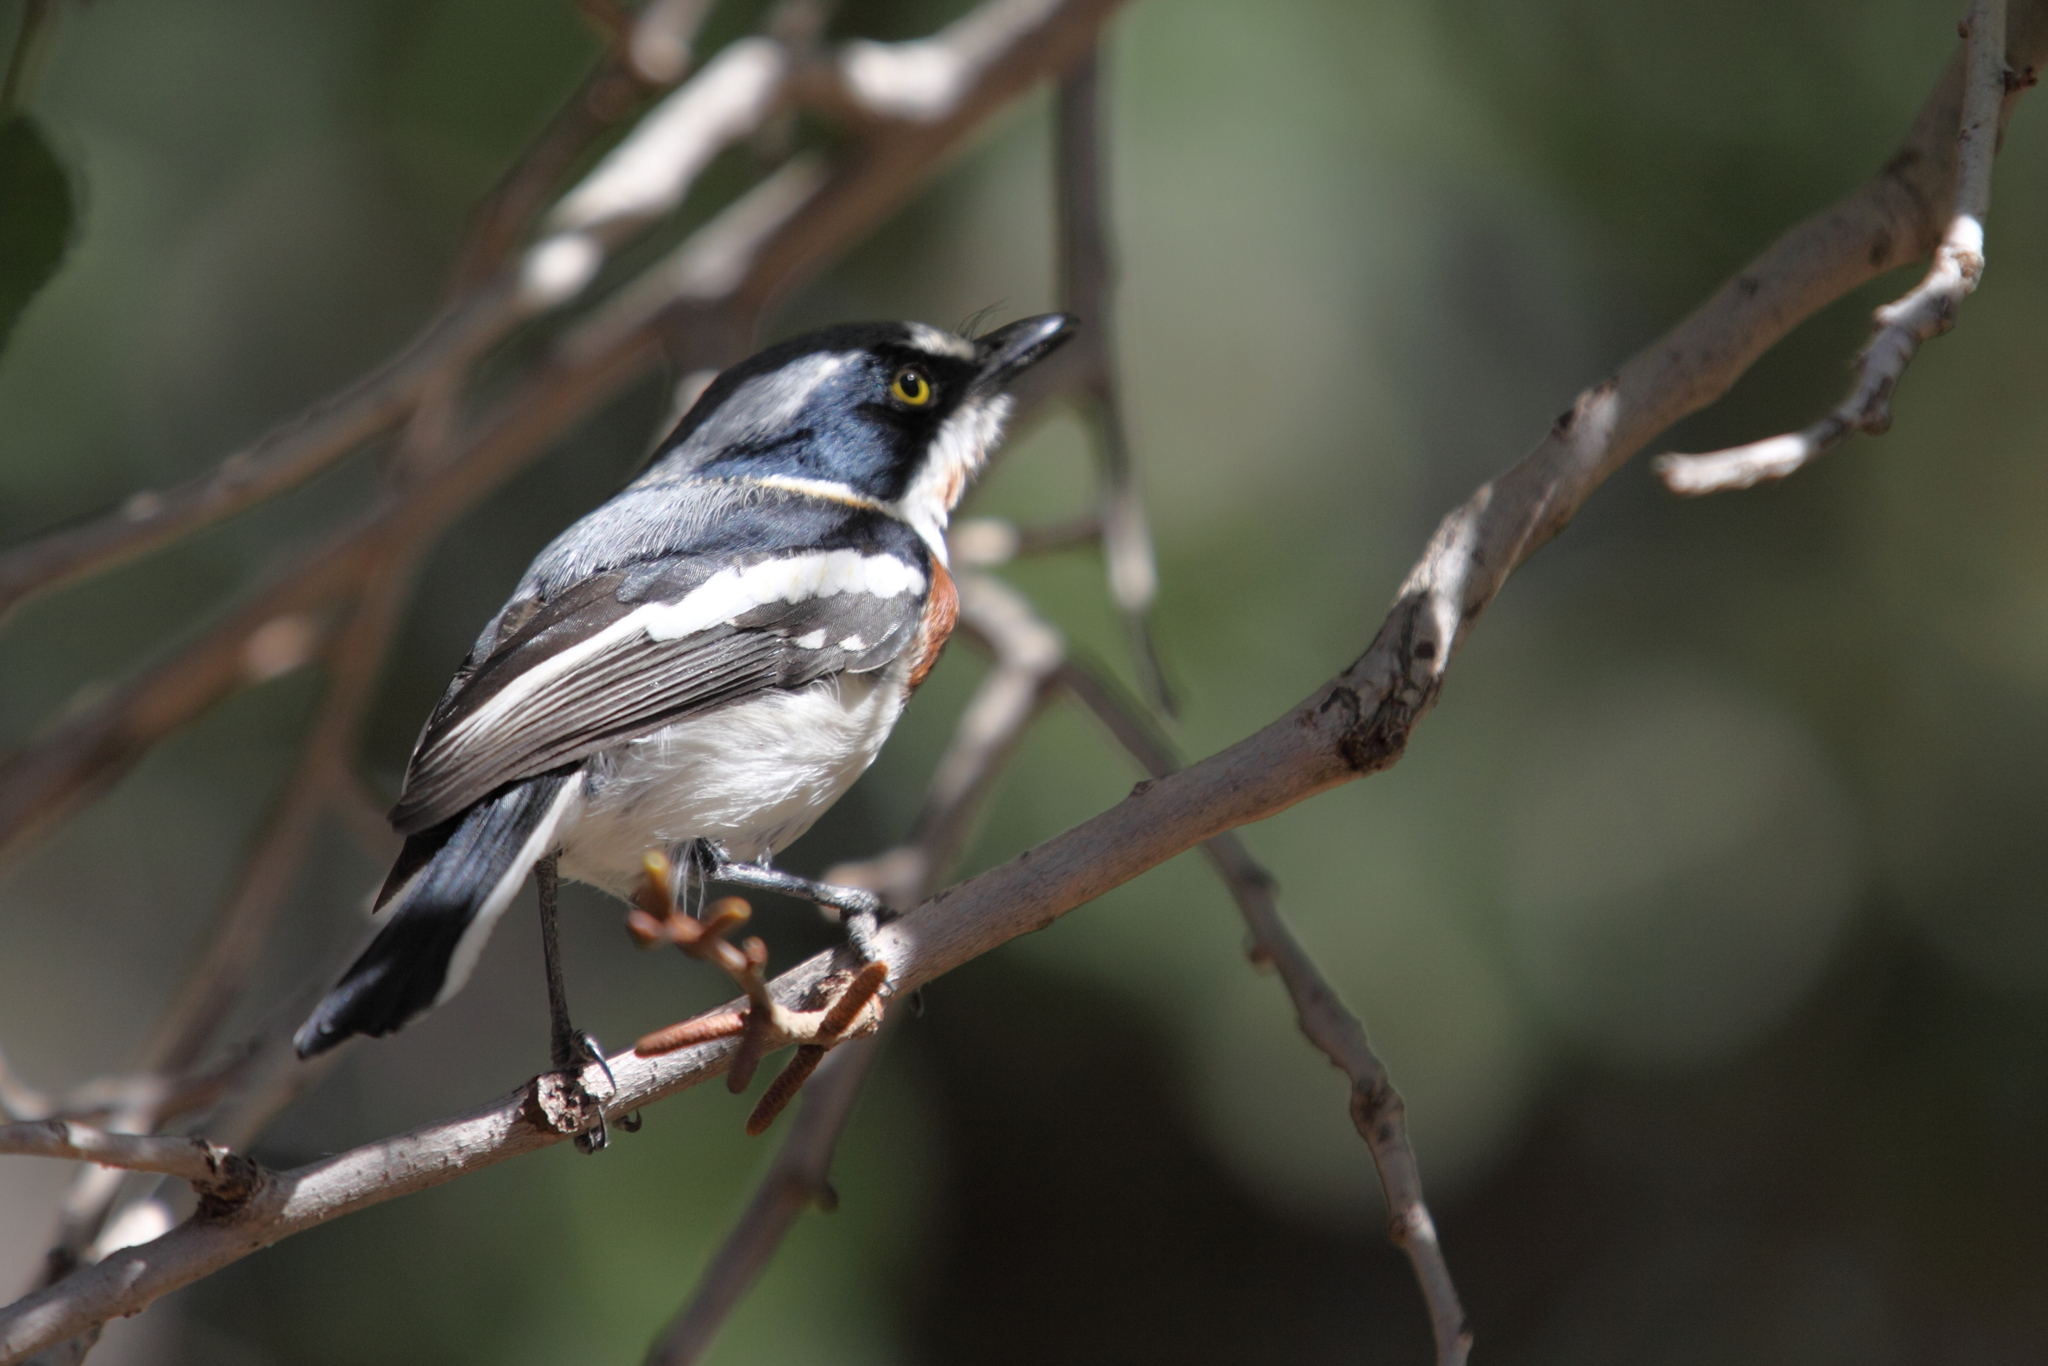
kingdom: Animalia
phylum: Chordata
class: Aves
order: Passeriformes
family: Platysteiridae
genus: Batis
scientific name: Batis molitor
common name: Chinspot batis
